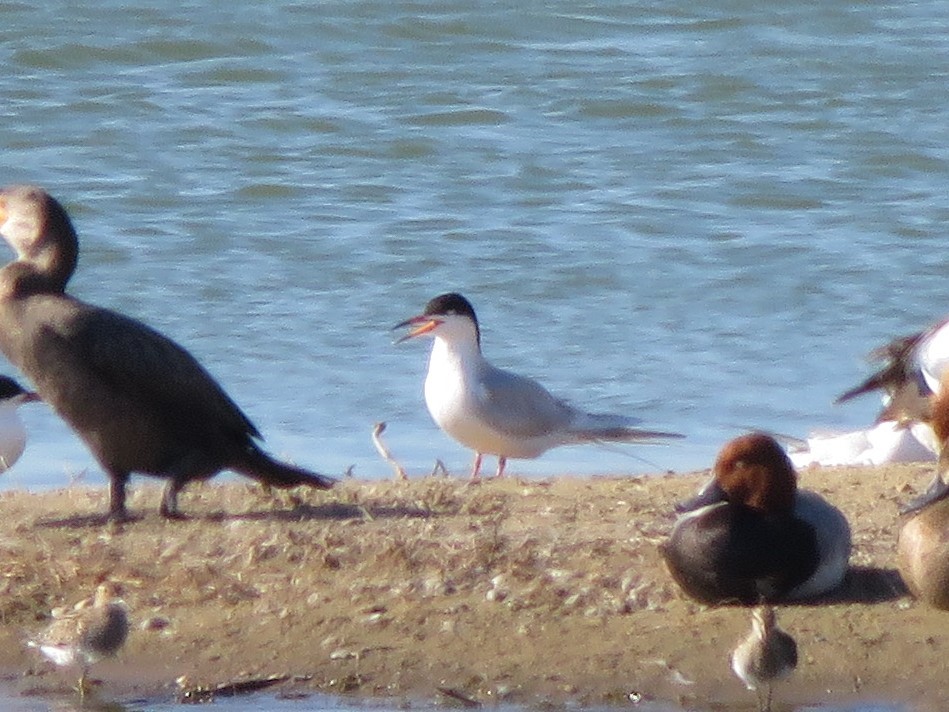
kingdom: Animalia
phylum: Chordata
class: Aves
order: Charadriiformes
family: Laridae
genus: Sterna
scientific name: Sterna forsteri
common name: Forster's tern
